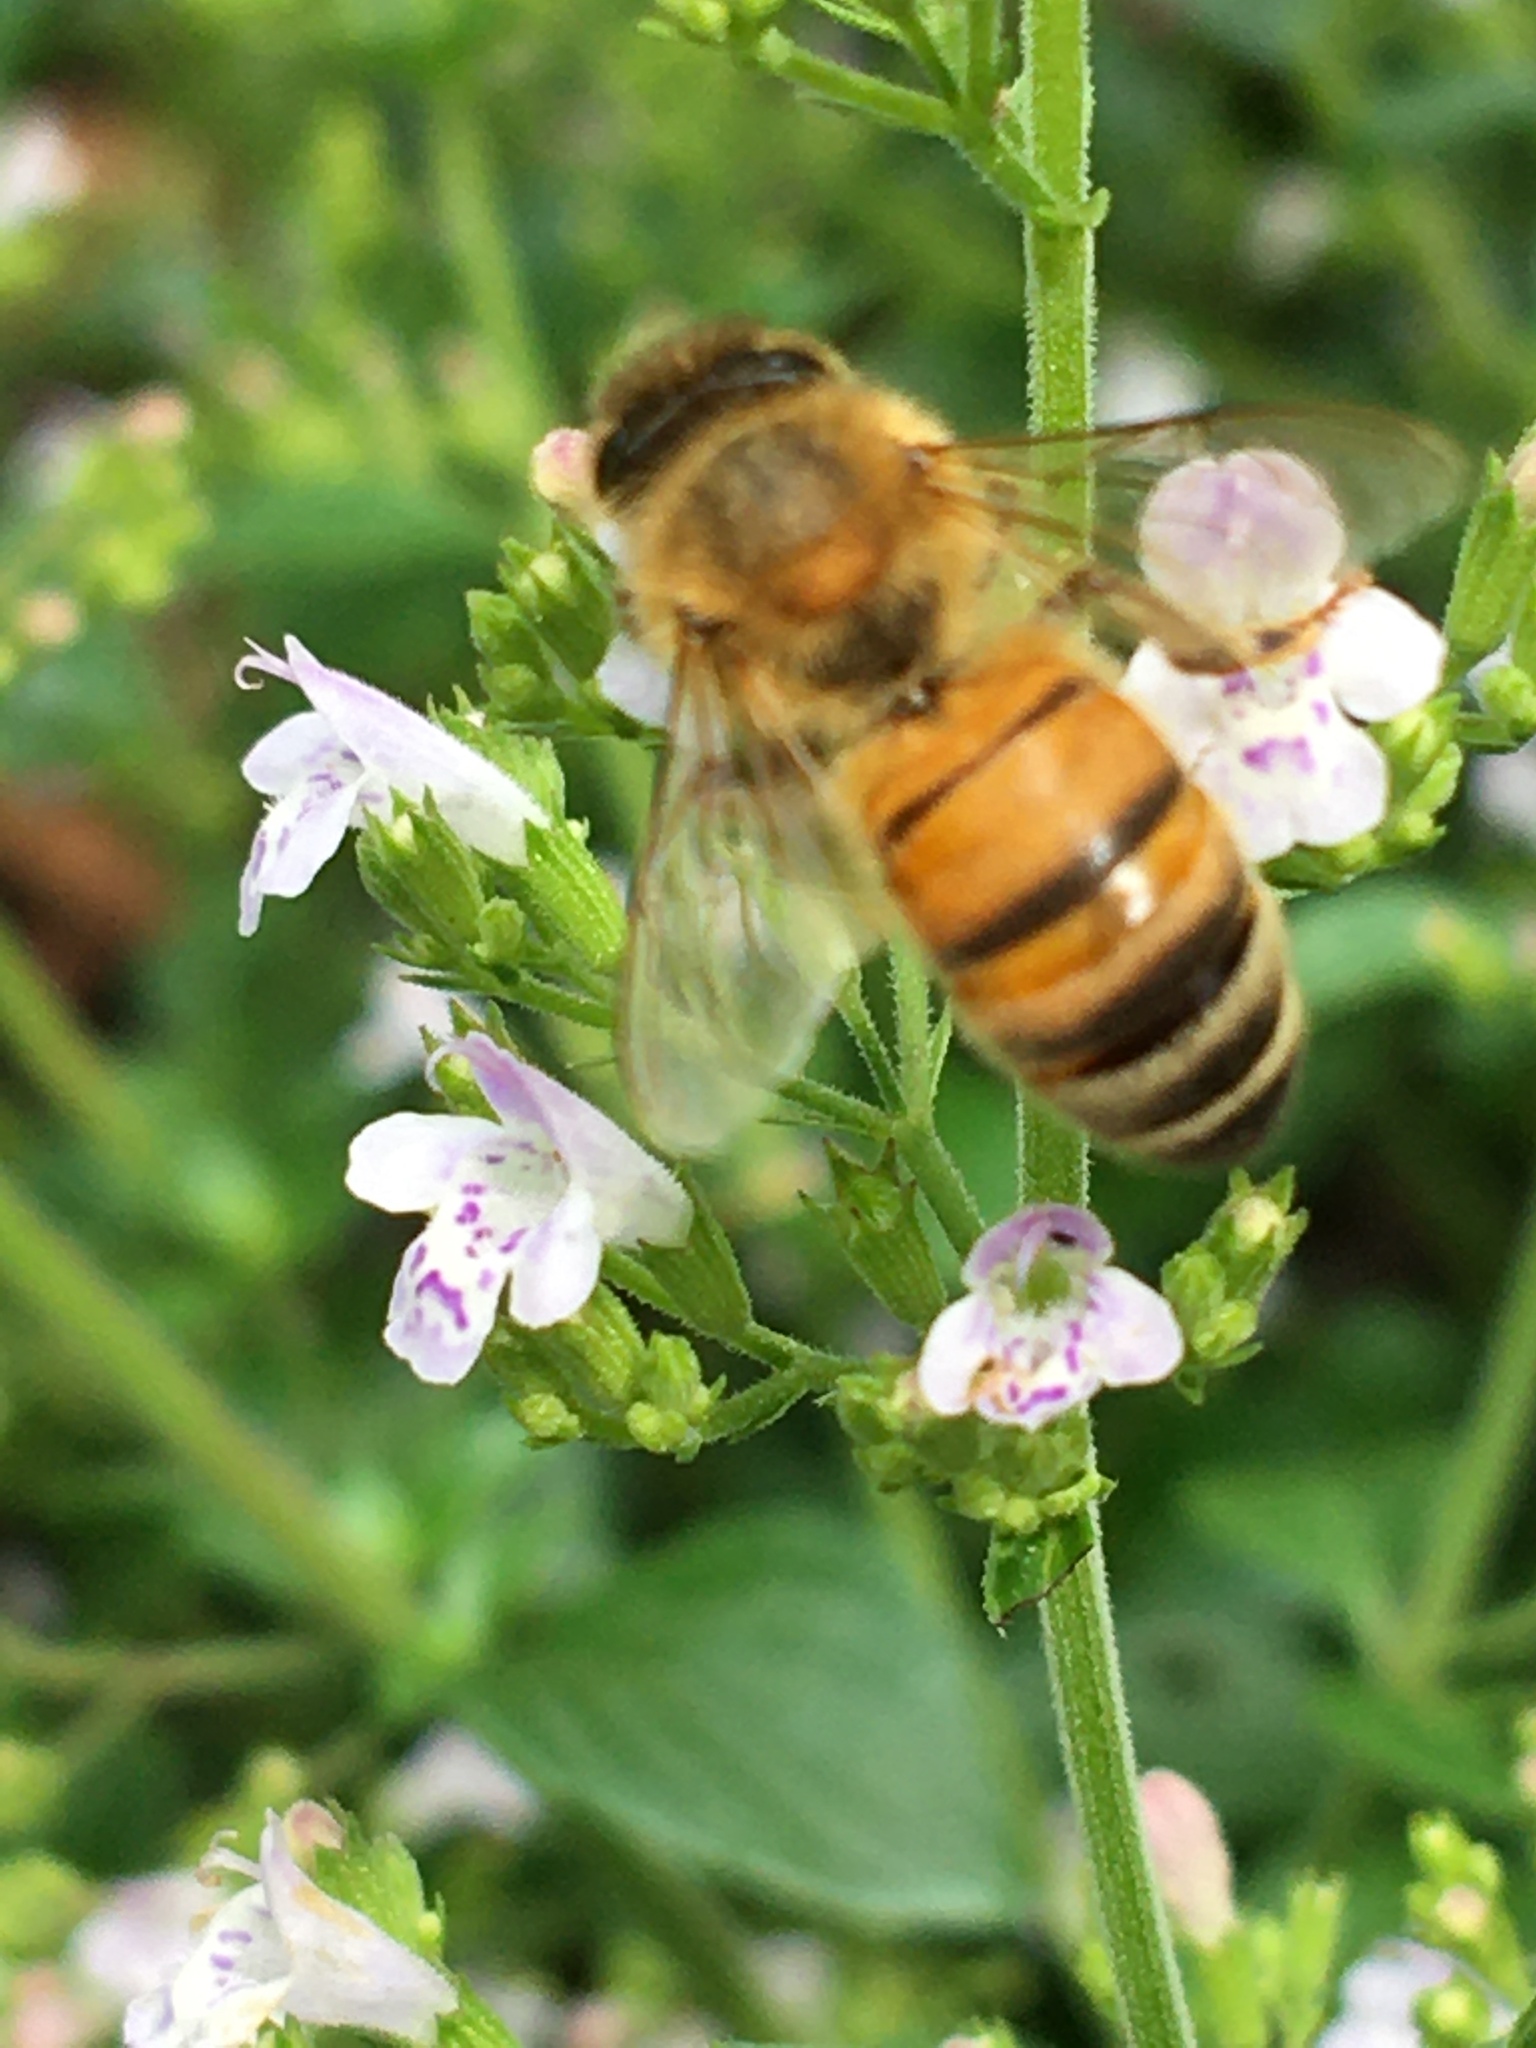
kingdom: Animalia
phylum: Arthropoda
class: Insecta
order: Hymenoptera
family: Apidae
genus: Apis
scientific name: Apis mellifera
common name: Honey bee
